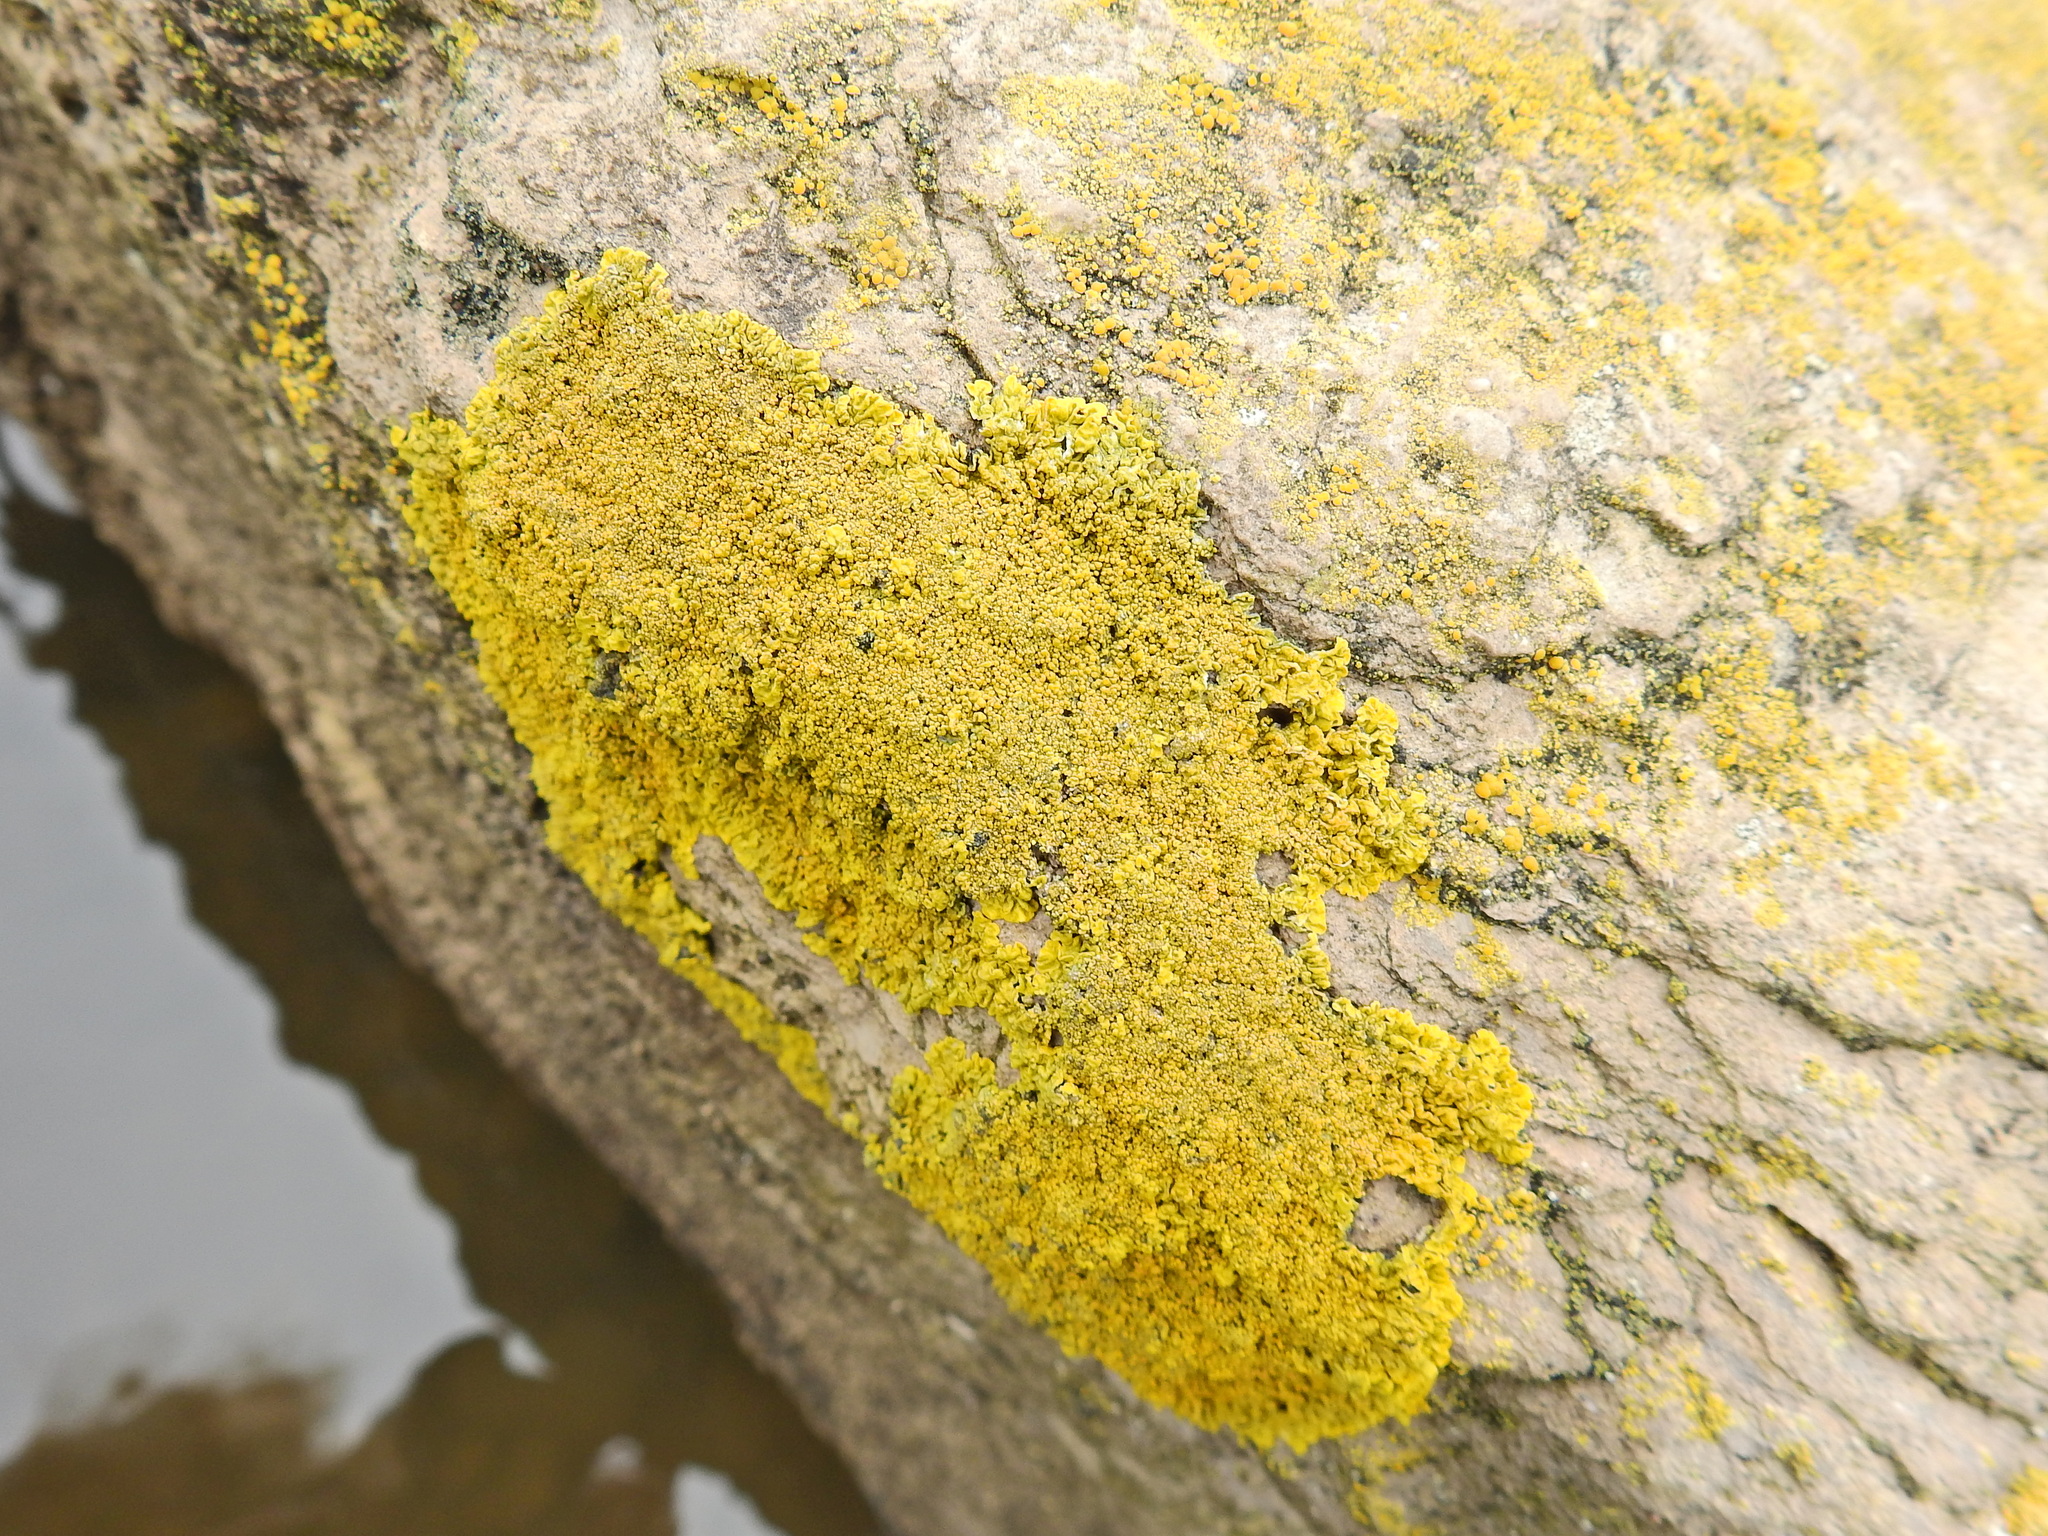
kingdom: Fungi
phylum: Ascomycota
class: Lecanoromycetes
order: Teloschistales
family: Teloschistaceae
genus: Xanthoria
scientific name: Xanthoria calcicola
